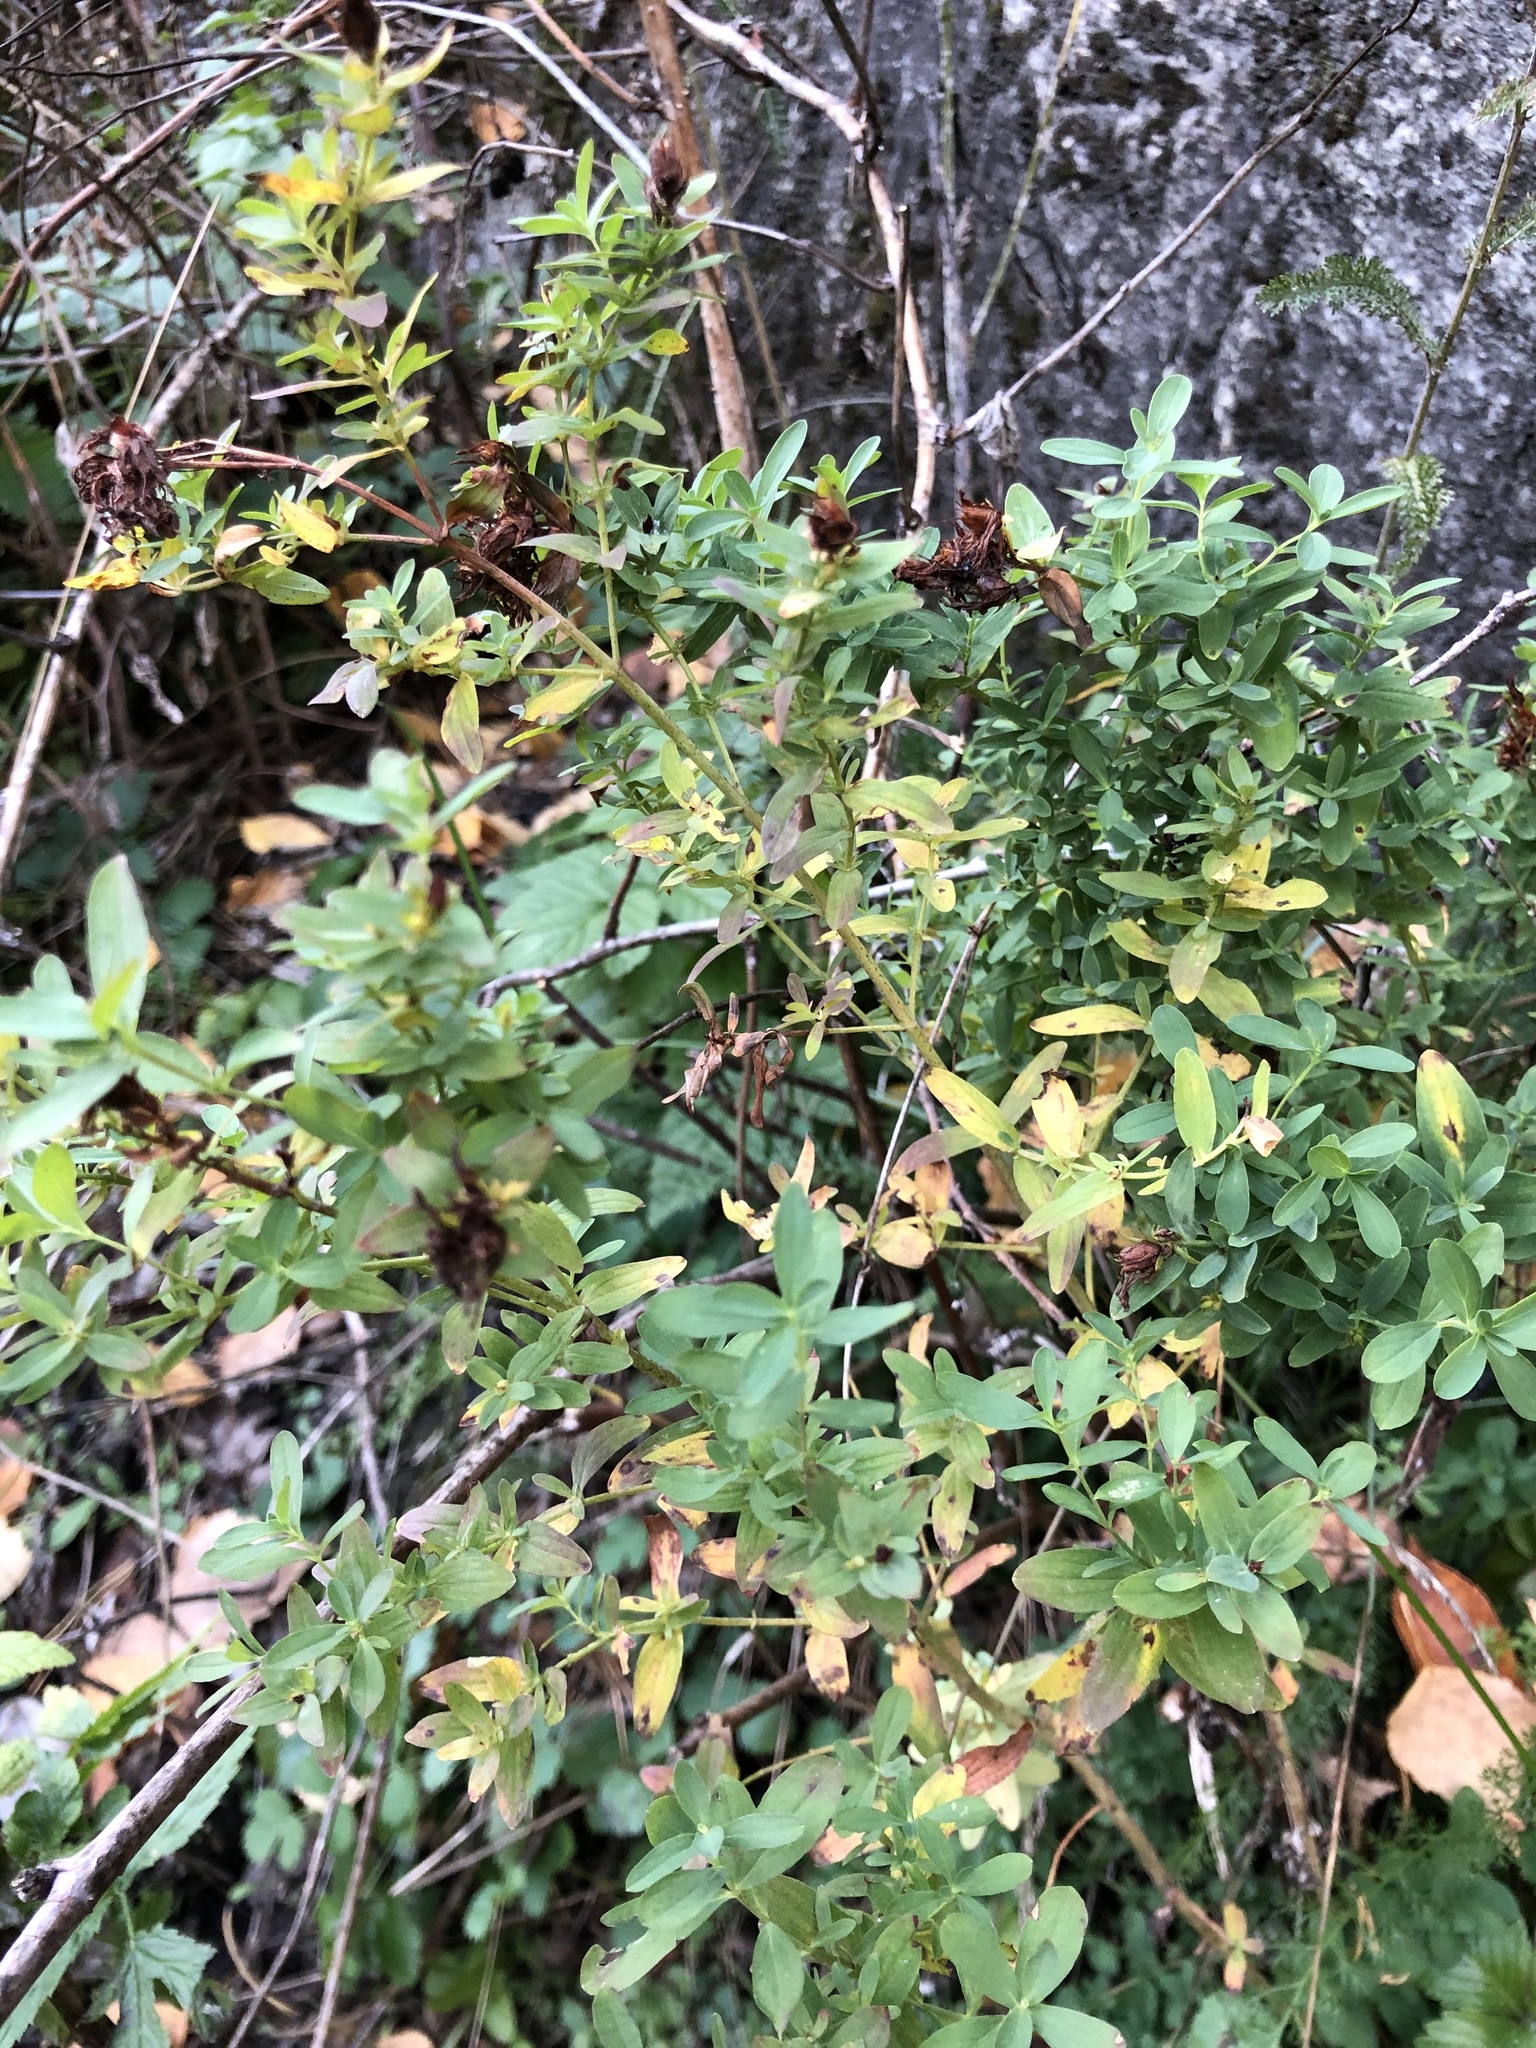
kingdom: Plantae
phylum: Tracheophyta
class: Magnoliopsida
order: Malpighiales
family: Hypericaceae
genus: Hypericum
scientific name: Hypericum maculatum
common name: Imperforate st. john's-wort
